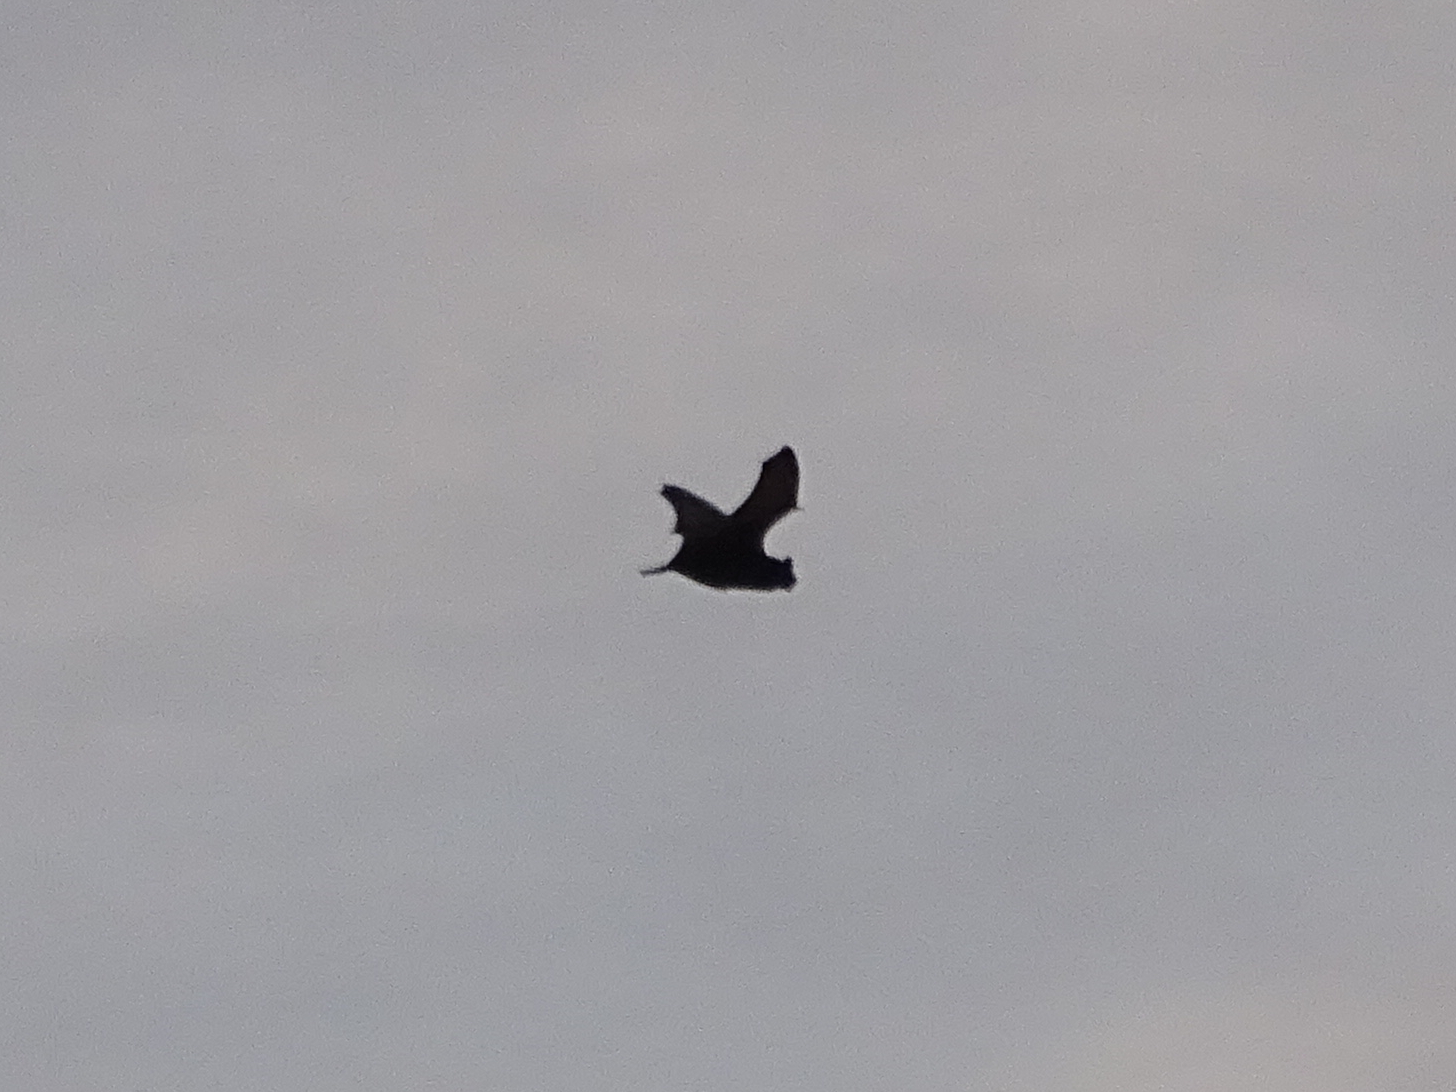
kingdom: Animalia
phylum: Chordata
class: Mammalia
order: Chiroptera
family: Vespertilionidae
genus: Nyctalus
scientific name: Nyctalus noctula
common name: Noctule
